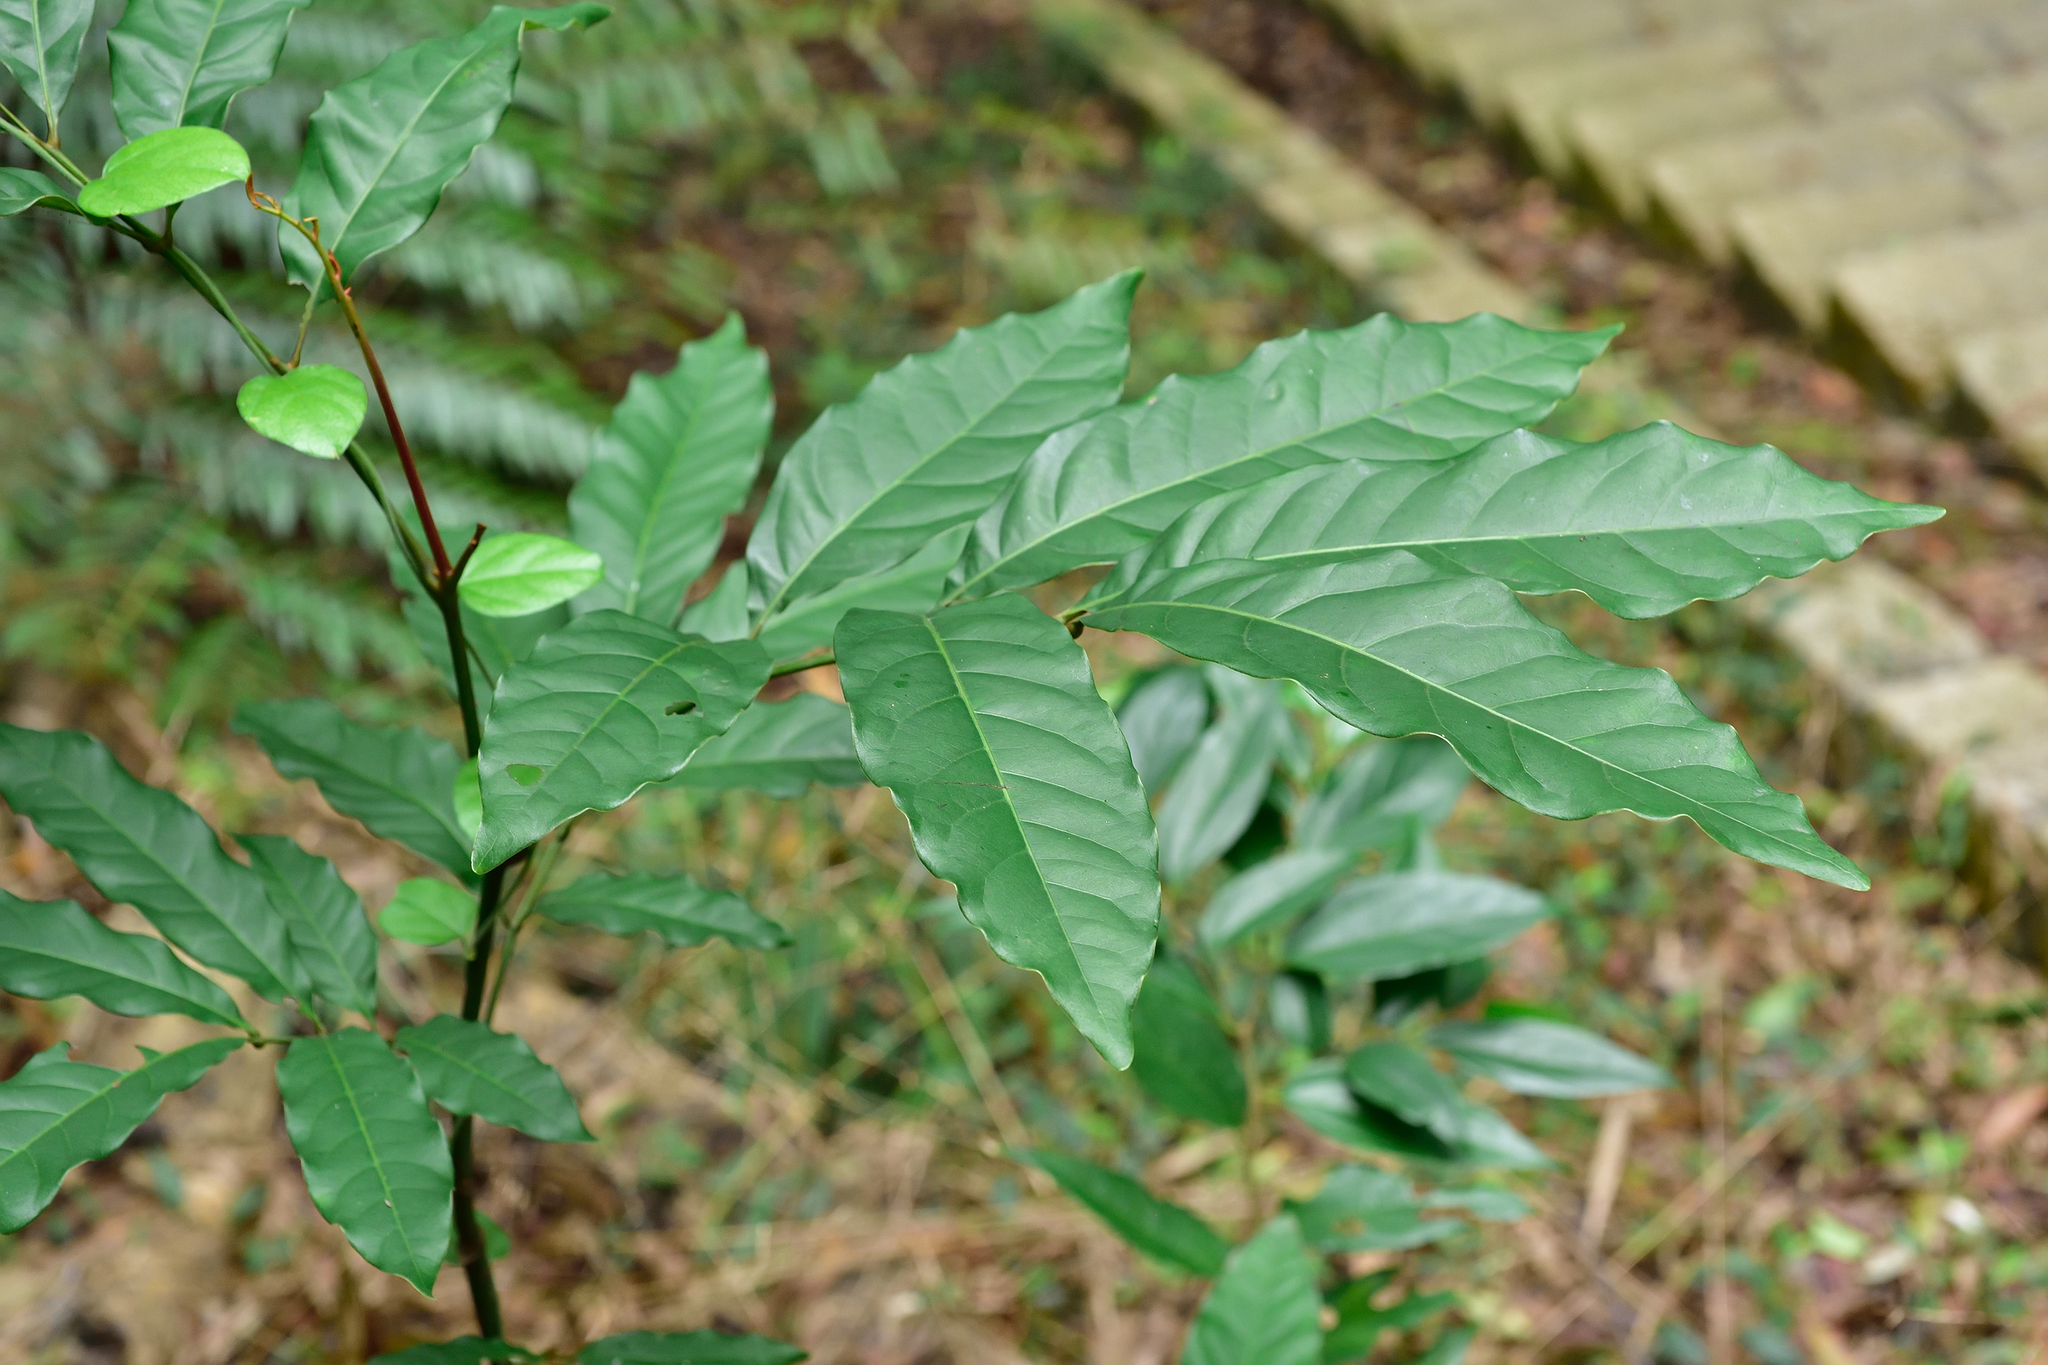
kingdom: Plantae
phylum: Tracheophyta
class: Magnoliopsida
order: Fagales
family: Juglandaceae
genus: Engelhardia
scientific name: Engelhardia roxburghiana
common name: Golden malay beam
